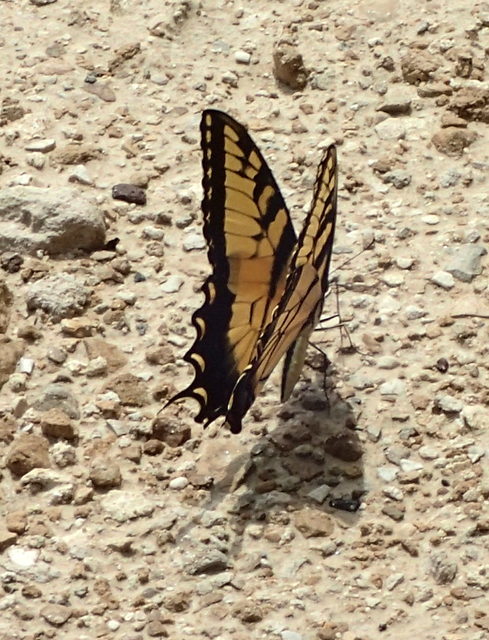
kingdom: Animalia
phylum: Arthropoda
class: Insecta
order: Lepidoptera
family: Papilionidae
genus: Papilio
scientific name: Papilio glaucus
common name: Tiger swallowtail
